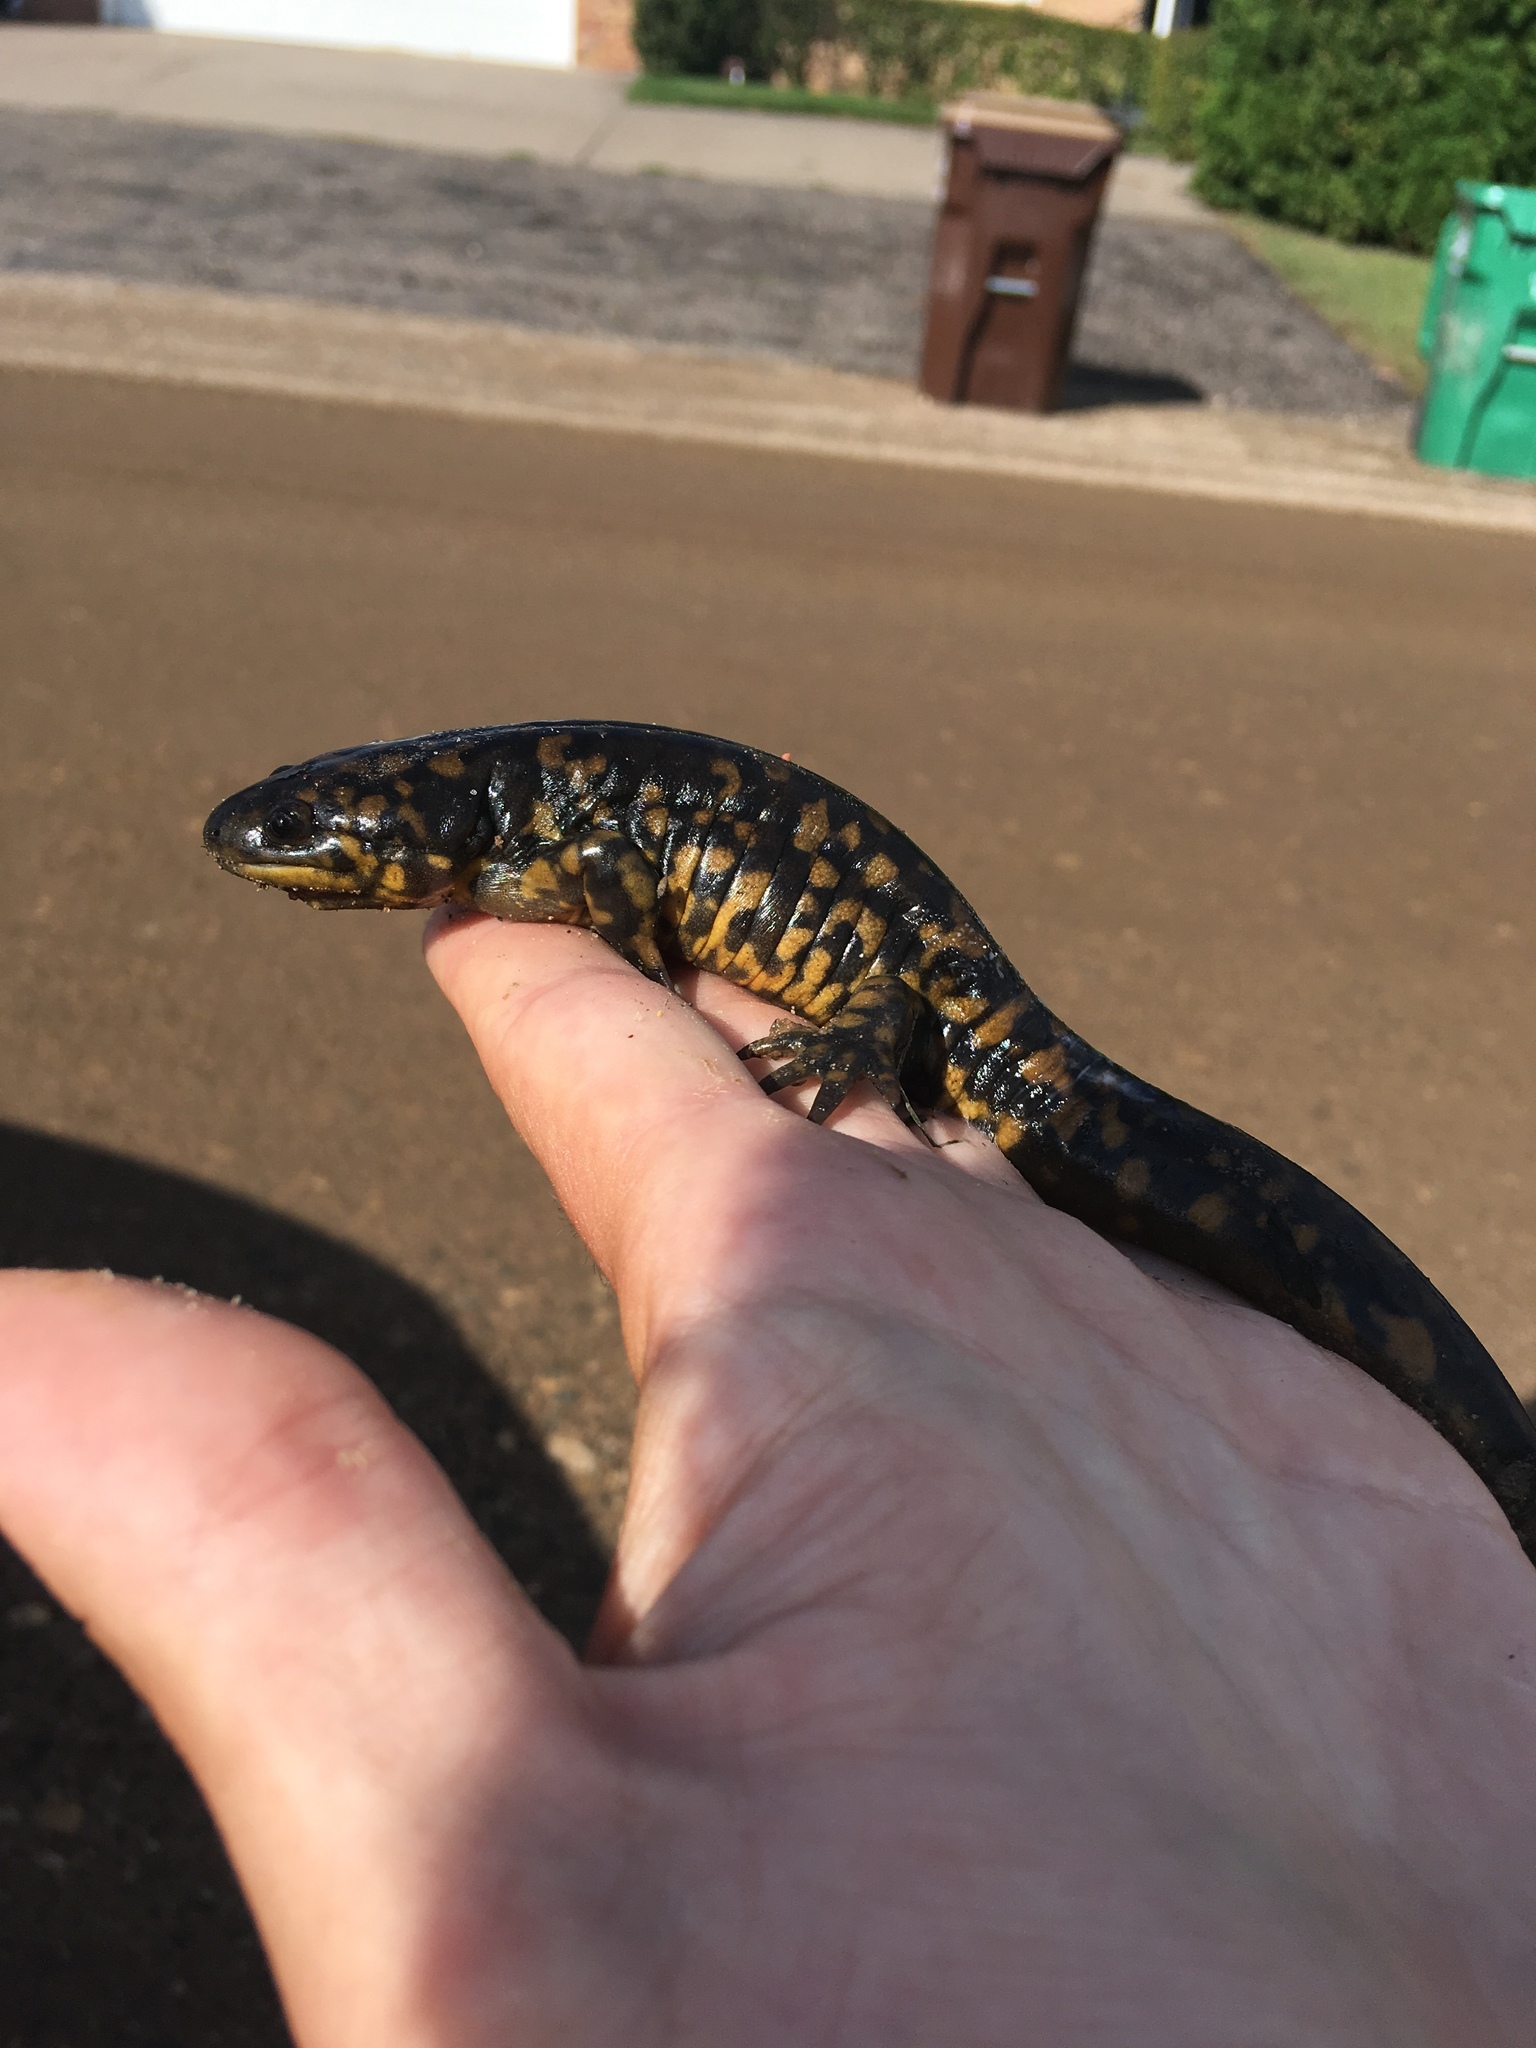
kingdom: Animalia
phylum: Chordata
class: Amphibia
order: Caudata
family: Ambystomatidae
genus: Ambystoma
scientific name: Ambystoma tigrinum
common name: Tiger salamander
